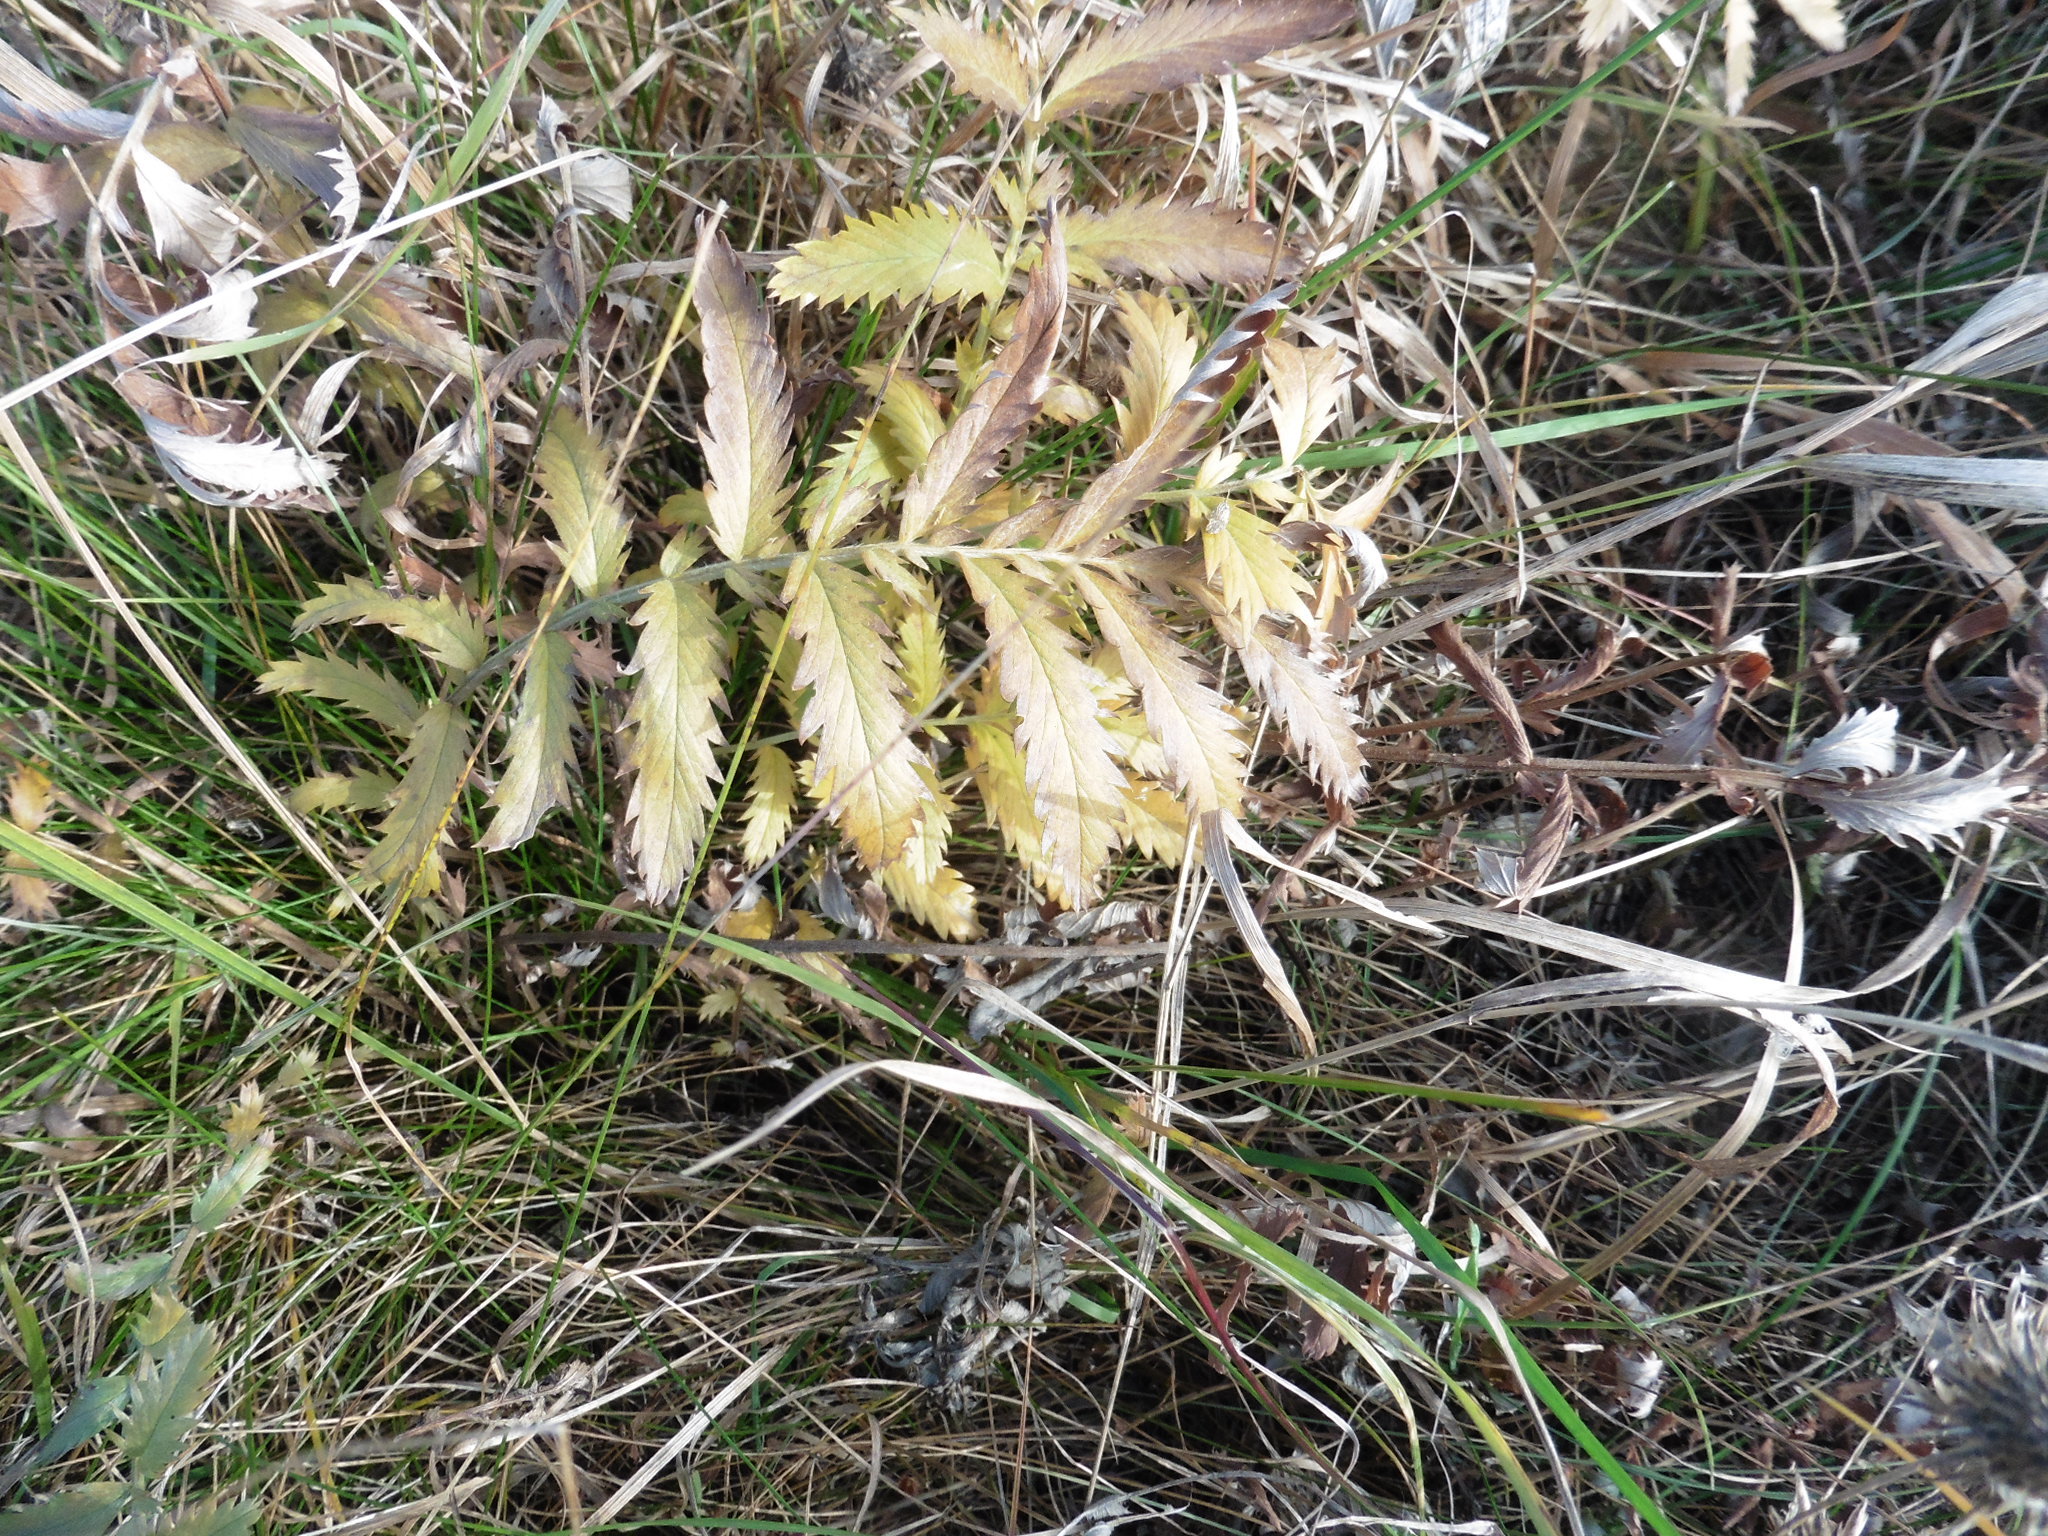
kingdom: Plantae
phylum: Tracheophyta
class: Magnoliopsida
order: Rosales
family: Rosaceae
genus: Argentina
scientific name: Argentina anserina
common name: Common silverweed
